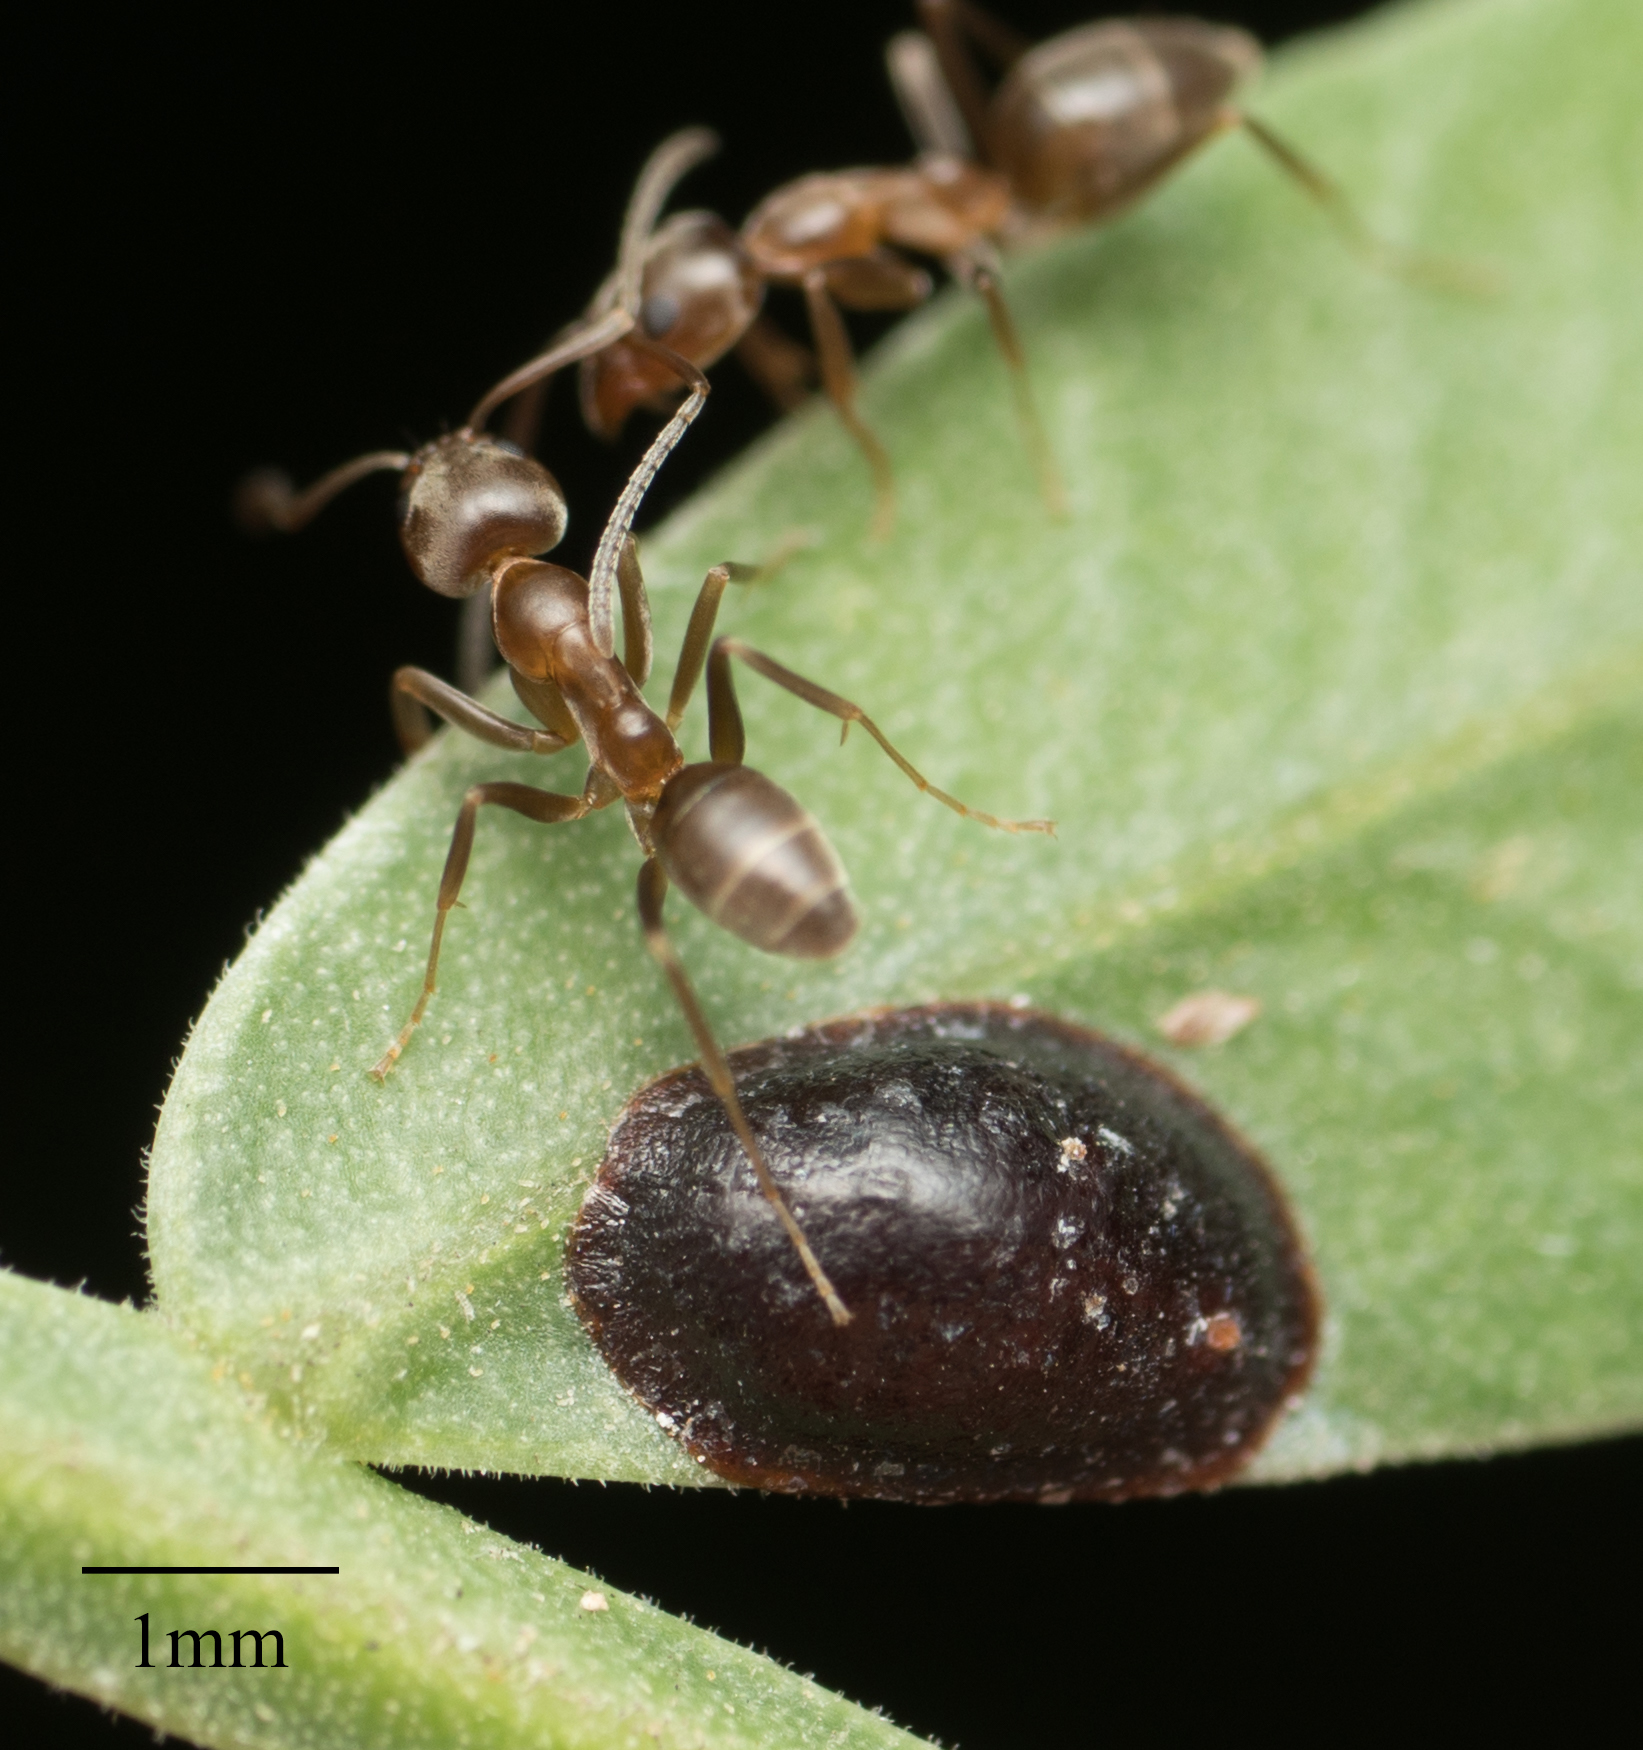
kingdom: Animalia
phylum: Arthropoda
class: Insecta
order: Hymenoptera
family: Formicidae
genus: Linepithema
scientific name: Linepithema humile
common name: Argentine ant
